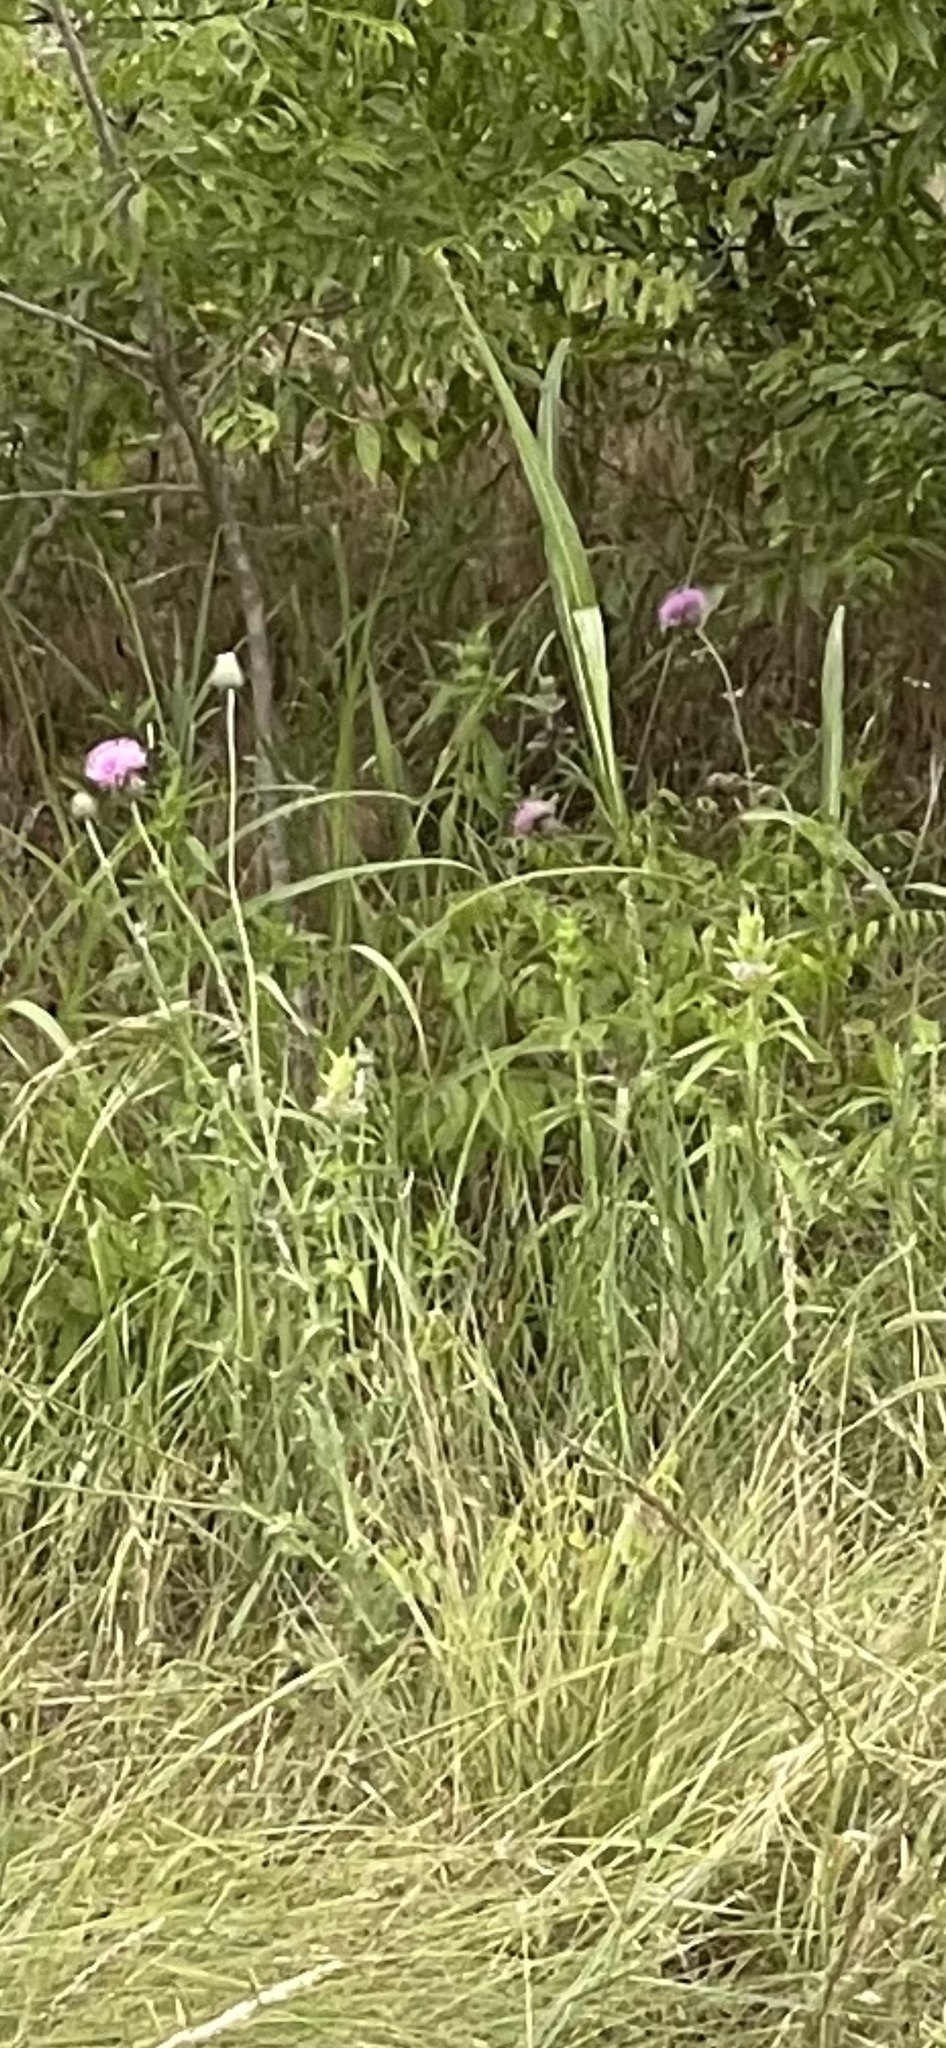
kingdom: Plantae
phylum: Tracheophyta
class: Magnoliopsida
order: Asterales
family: Asteraceae
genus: Cirsium
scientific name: Cirsium texanum
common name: Texas purple thistle
